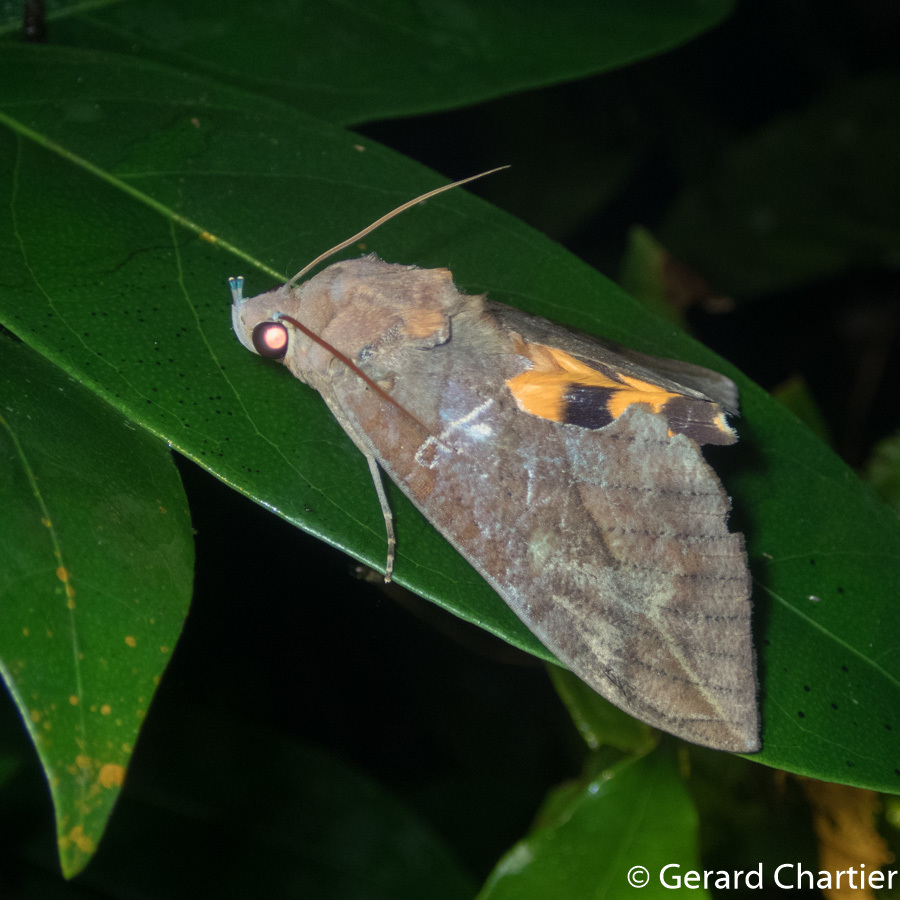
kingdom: Animalia
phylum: Arthropoda
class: Insecta
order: Lepidoptera
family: Erebidae
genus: Eudocima
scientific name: Eudocima phalonia
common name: Wasp
